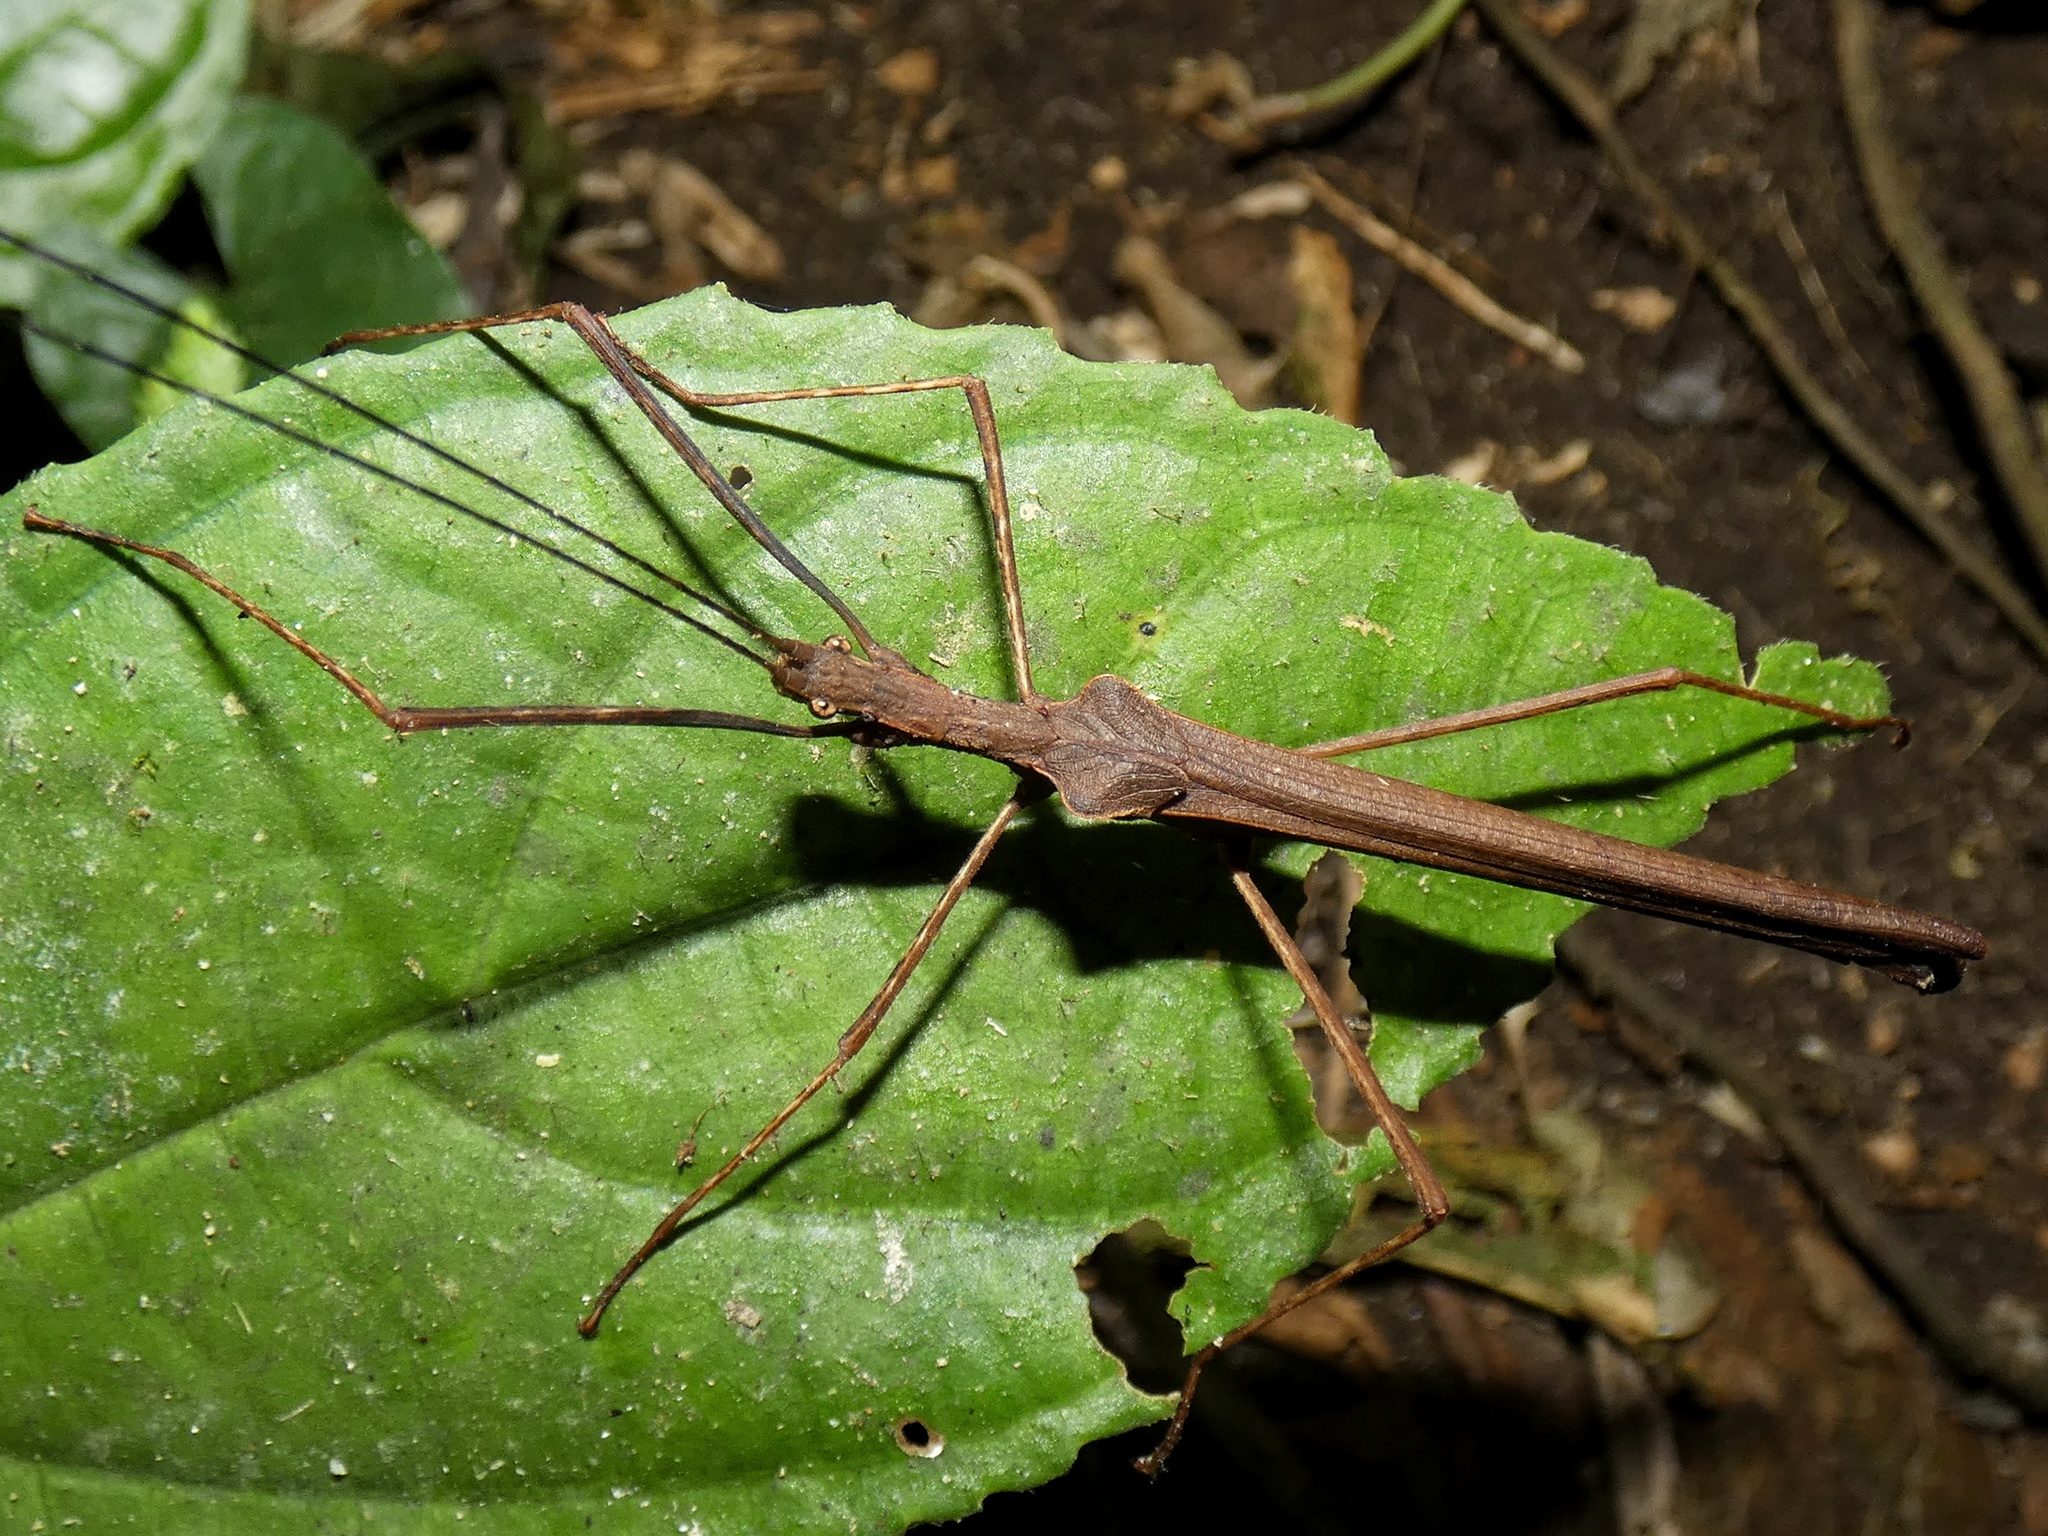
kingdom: Animalia
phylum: Arthropoda
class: Insecta
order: Phasmida
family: Pseudophasmatidae
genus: Pseudophasma
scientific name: Pseudophasma unicolor
